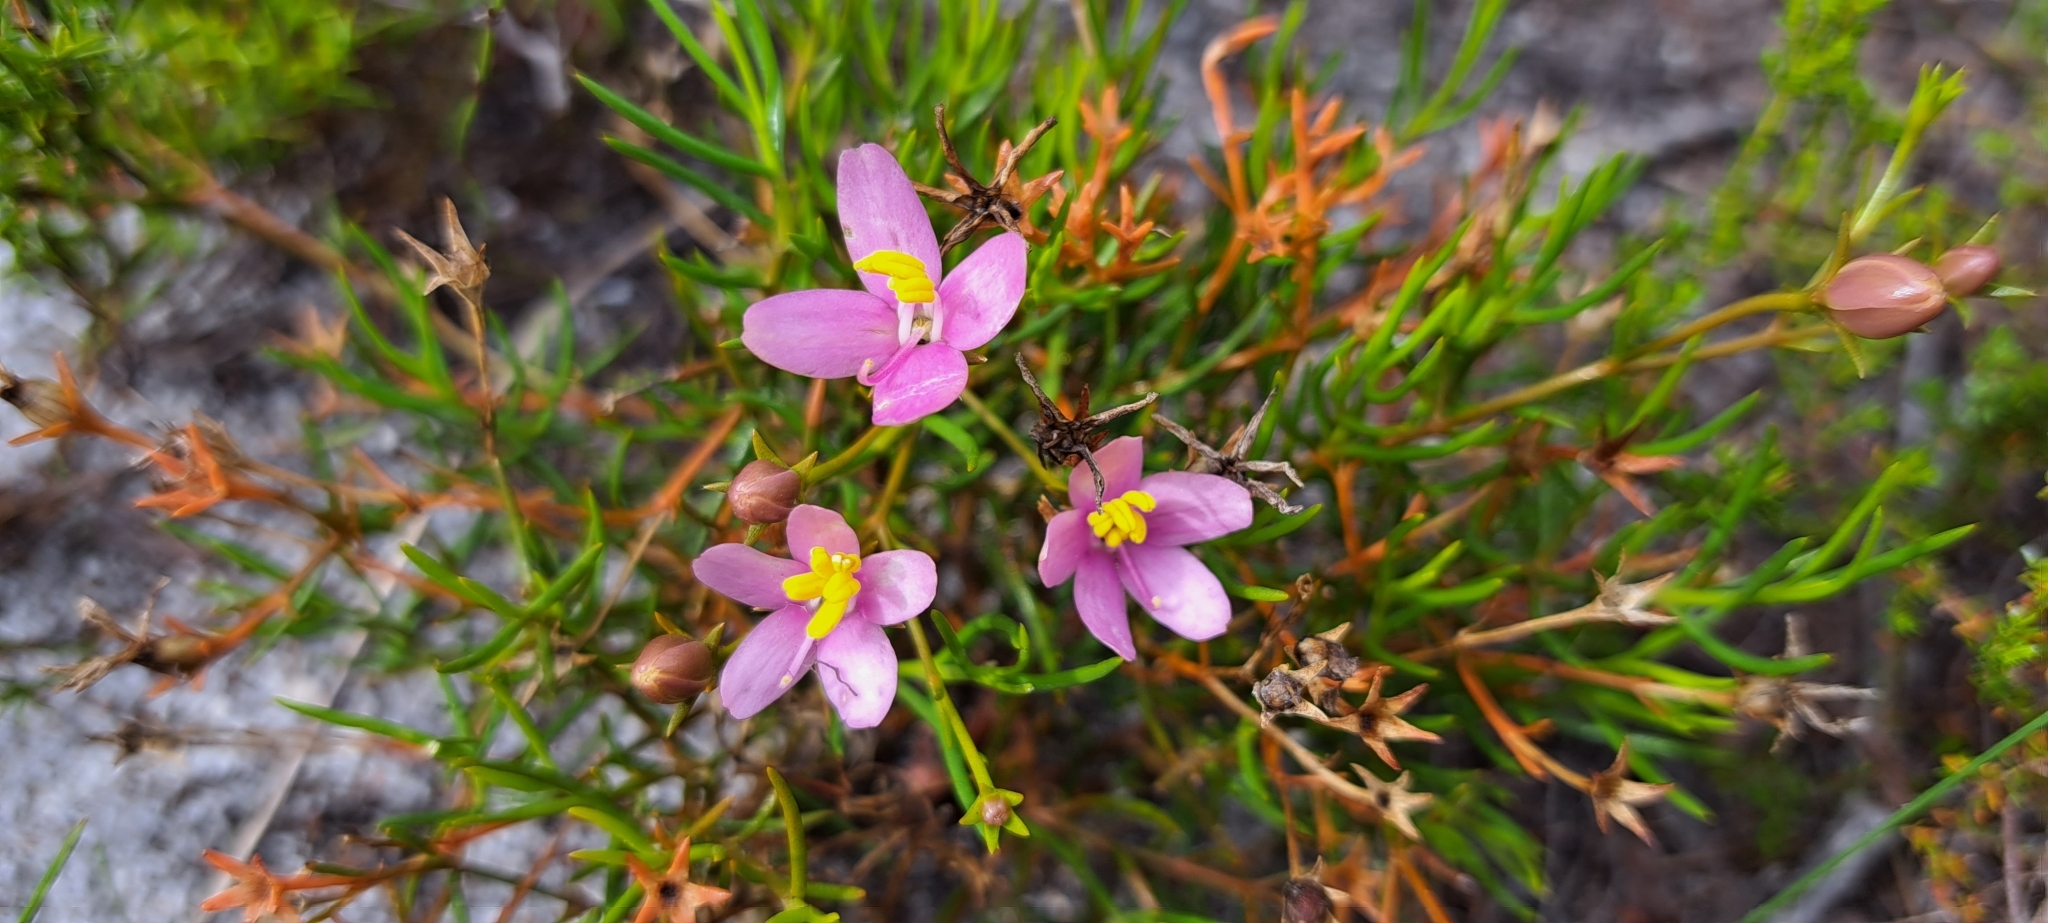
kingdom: Plantae
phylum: Tracheophyta
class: Magnoliopsida
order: Gentianales
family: Gentianaceae
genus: Chironia
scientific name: Chironia linoides
